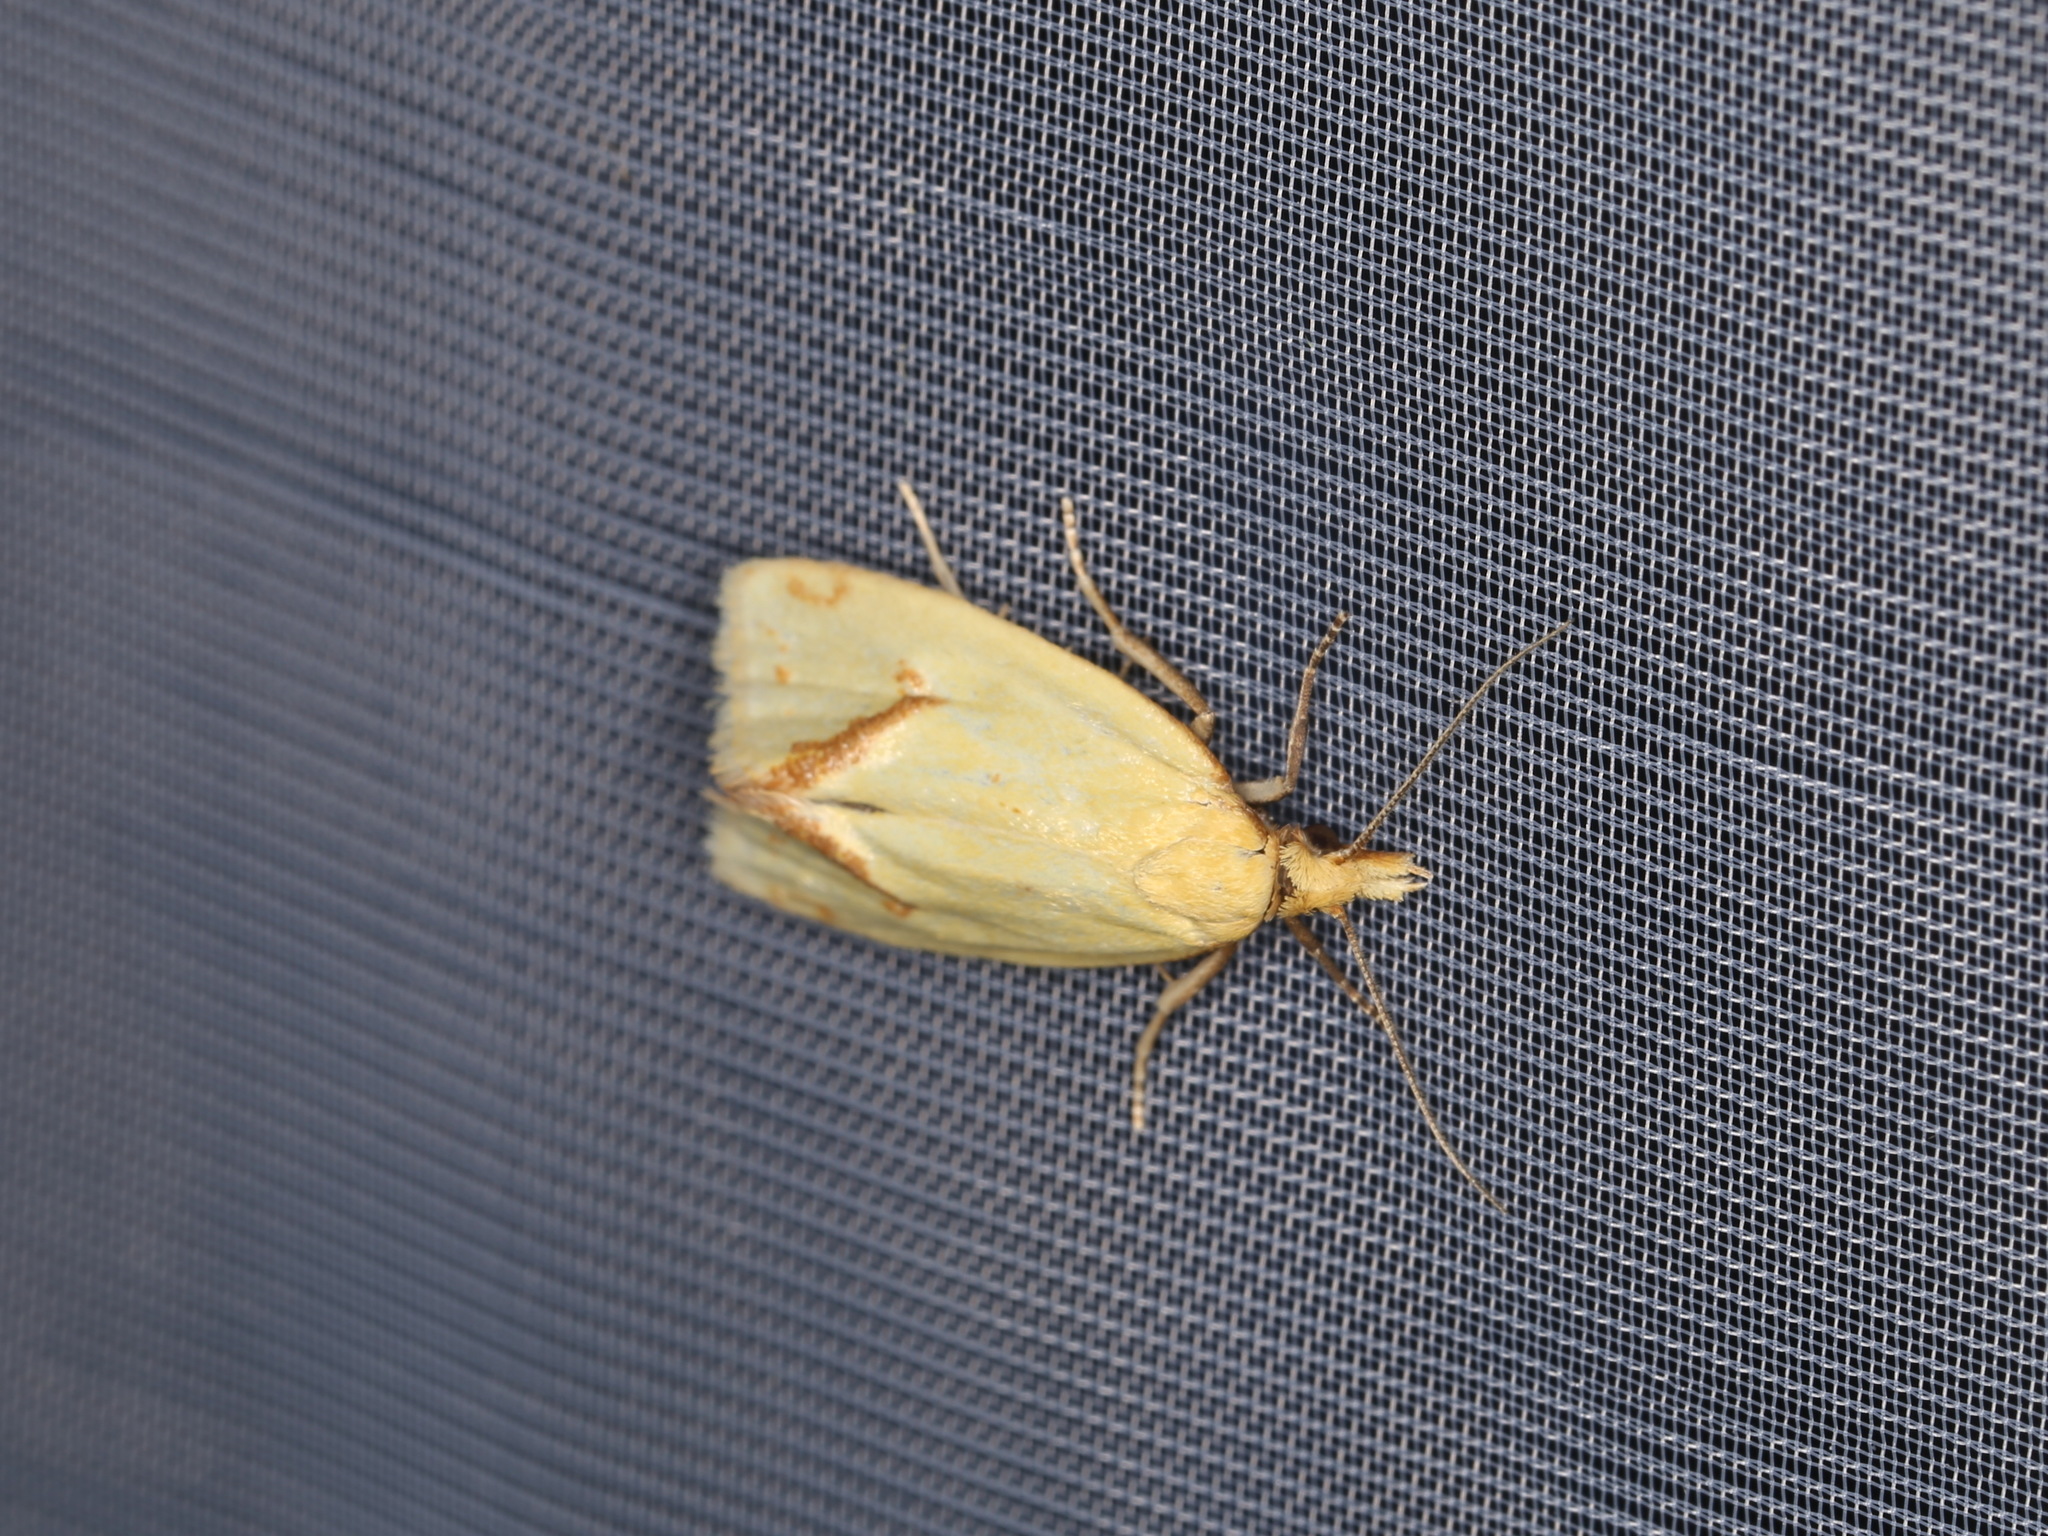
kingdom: Animalia
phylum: Arthropoda
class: Insecta
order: Lepidoptera
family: Tortricidae
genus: Agapeta
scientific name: Agapeta hamana
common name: Common yellow conch
